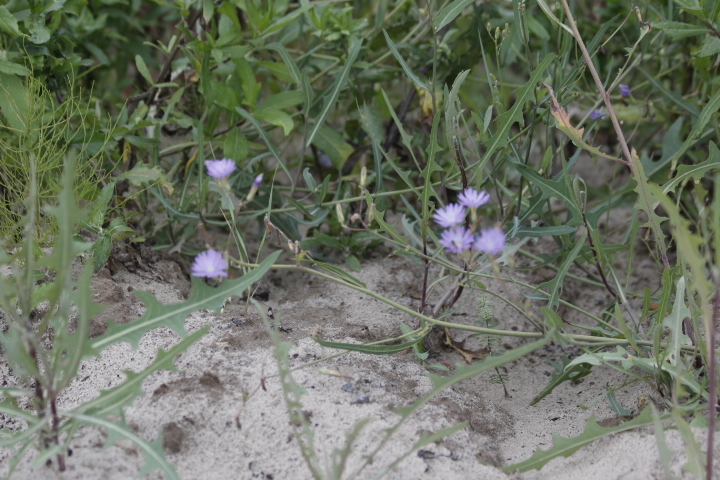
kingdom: Plantae
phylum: Tracheophyta
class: Magnoliopsida
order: Asterales
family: Asteraceae
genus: Lactuca
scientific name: Lactuca tatarica
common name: Blue lettuce
